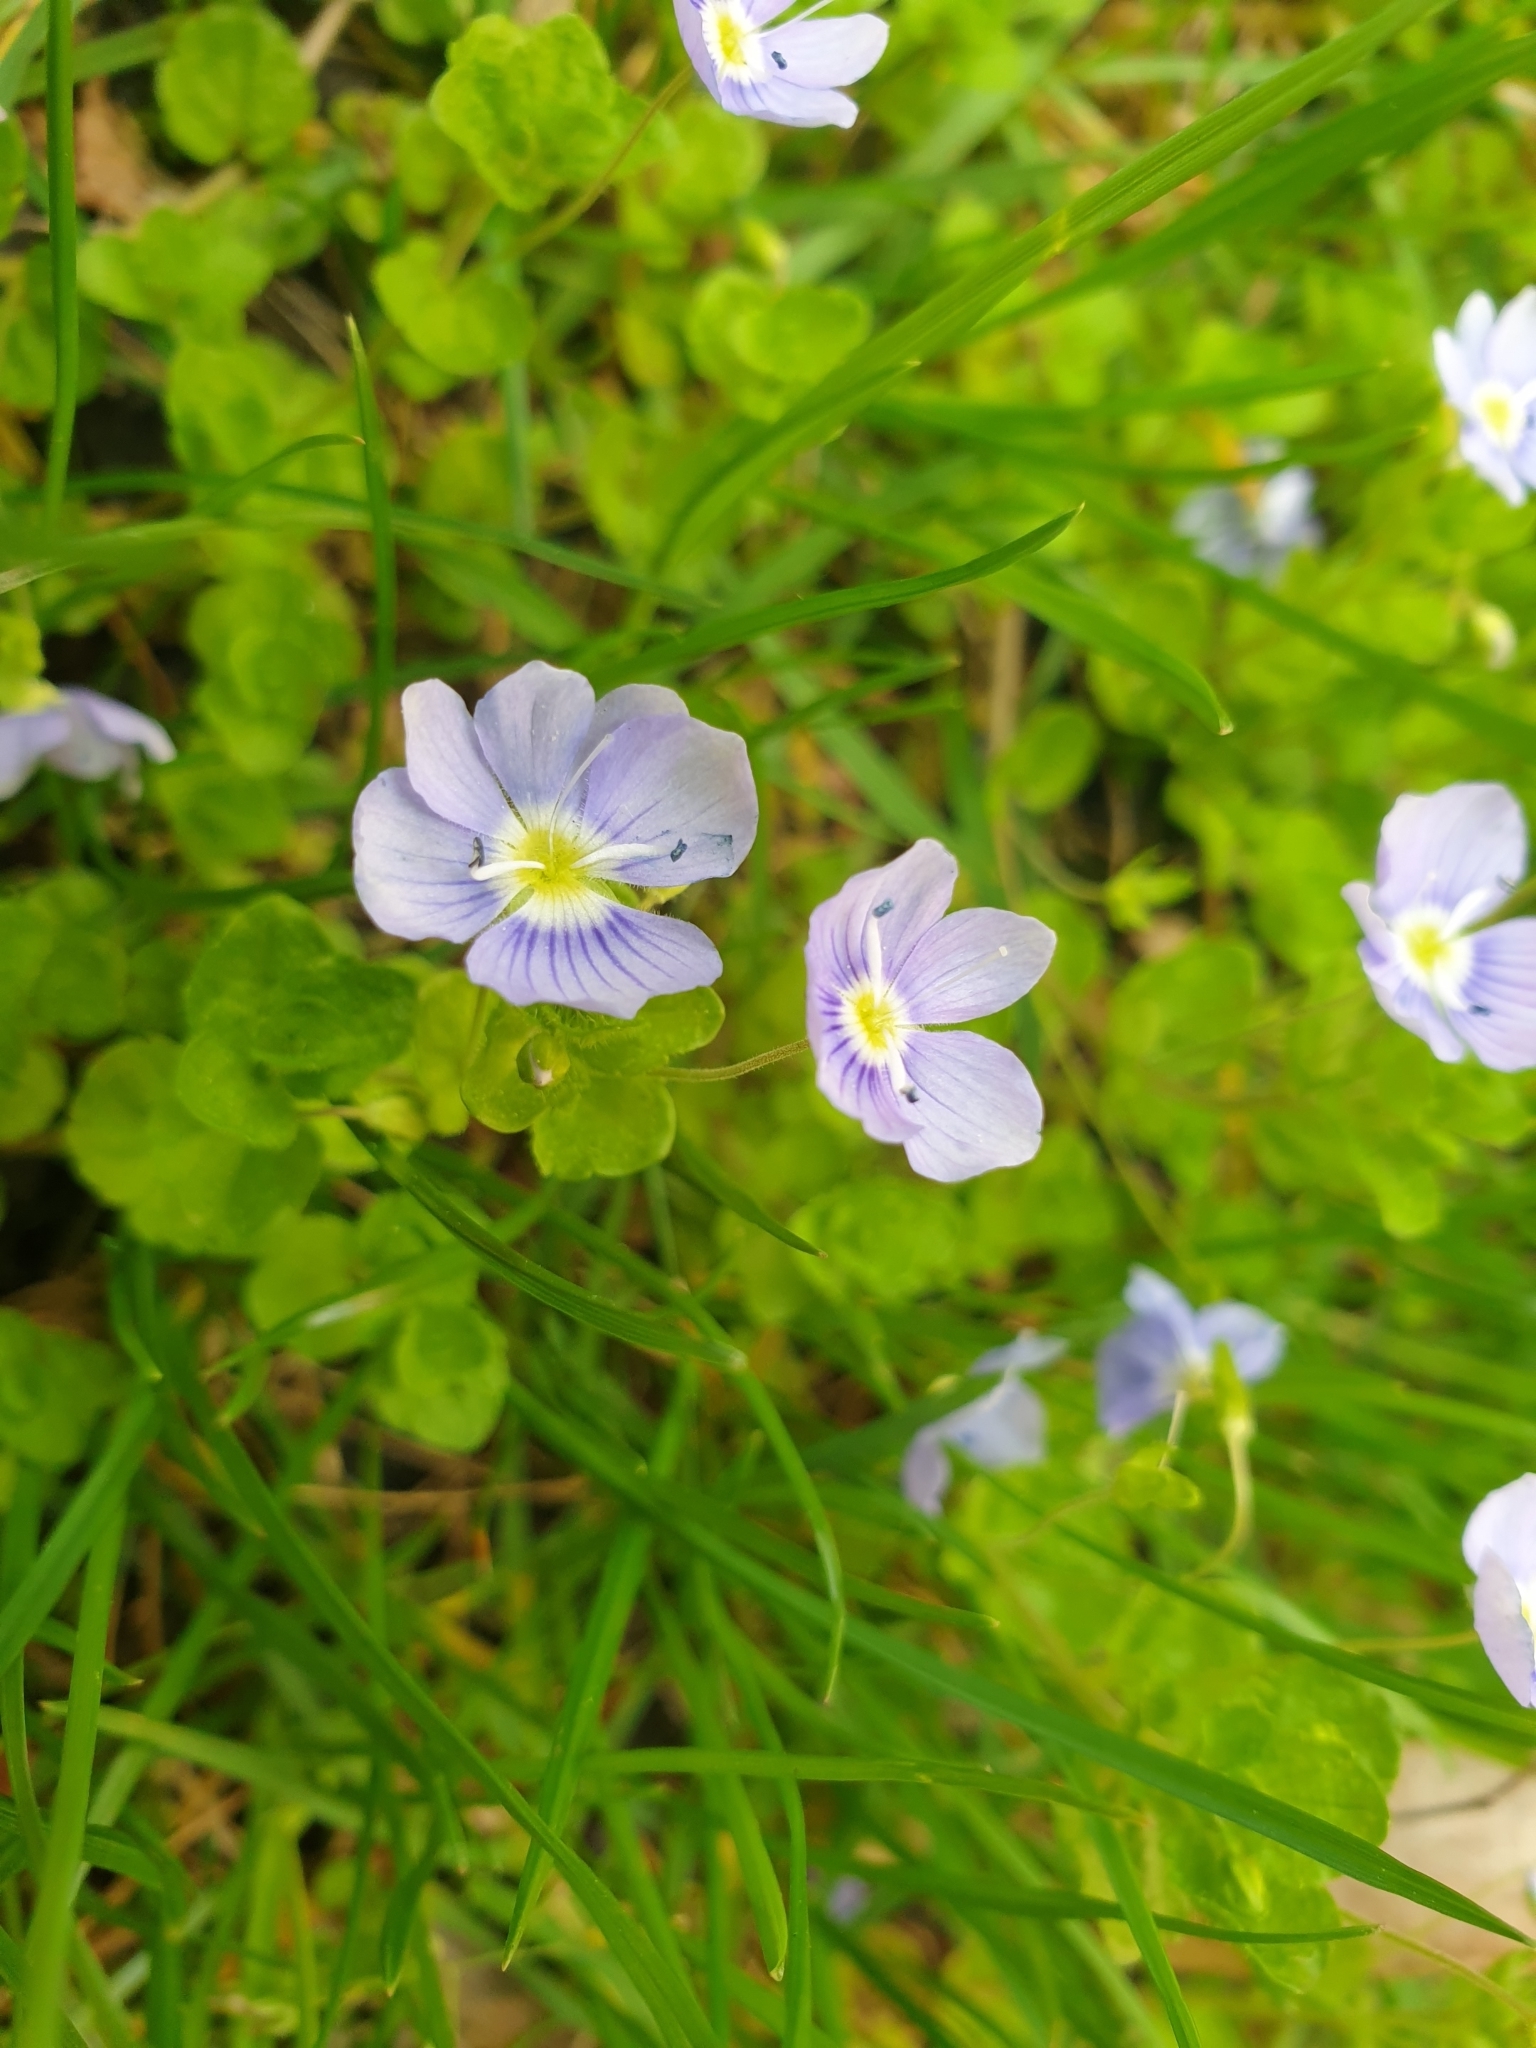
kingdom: Plantae
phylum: Tracheophyta
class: Magnoliopsida
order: Lamiales
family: Plantaginaceae
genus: Veronica
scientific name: Veronica filiformis
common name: Slender speedwell
